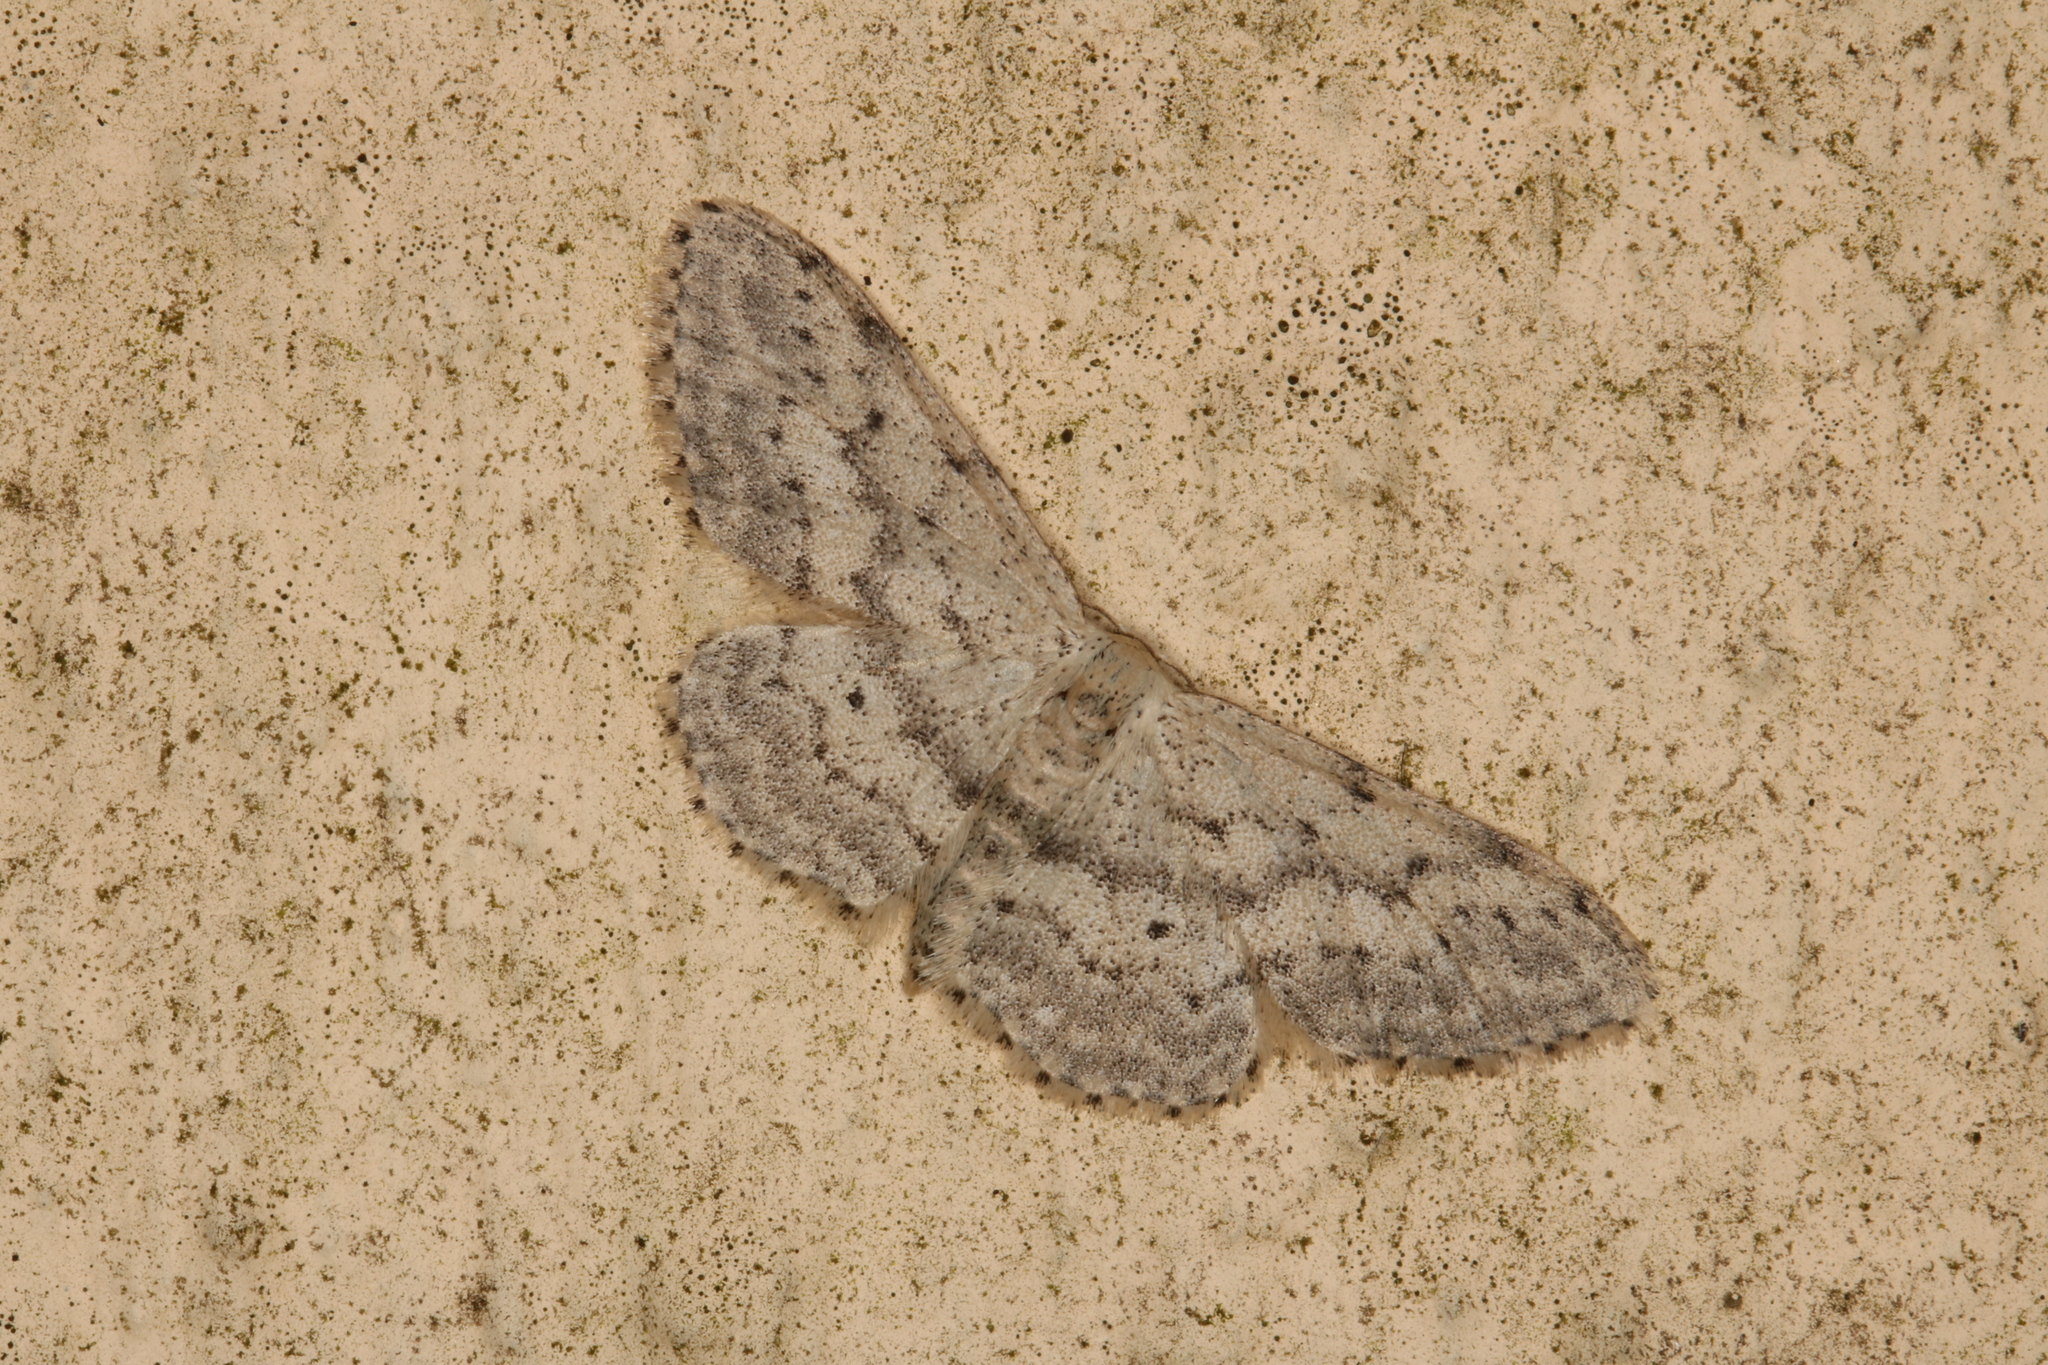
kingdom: Animalia
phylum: Arthropoda
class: Insecta
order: Lepidoptera
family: Geometridae
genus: Idaea
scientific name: Idaea seriata
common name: Small dusty wave
